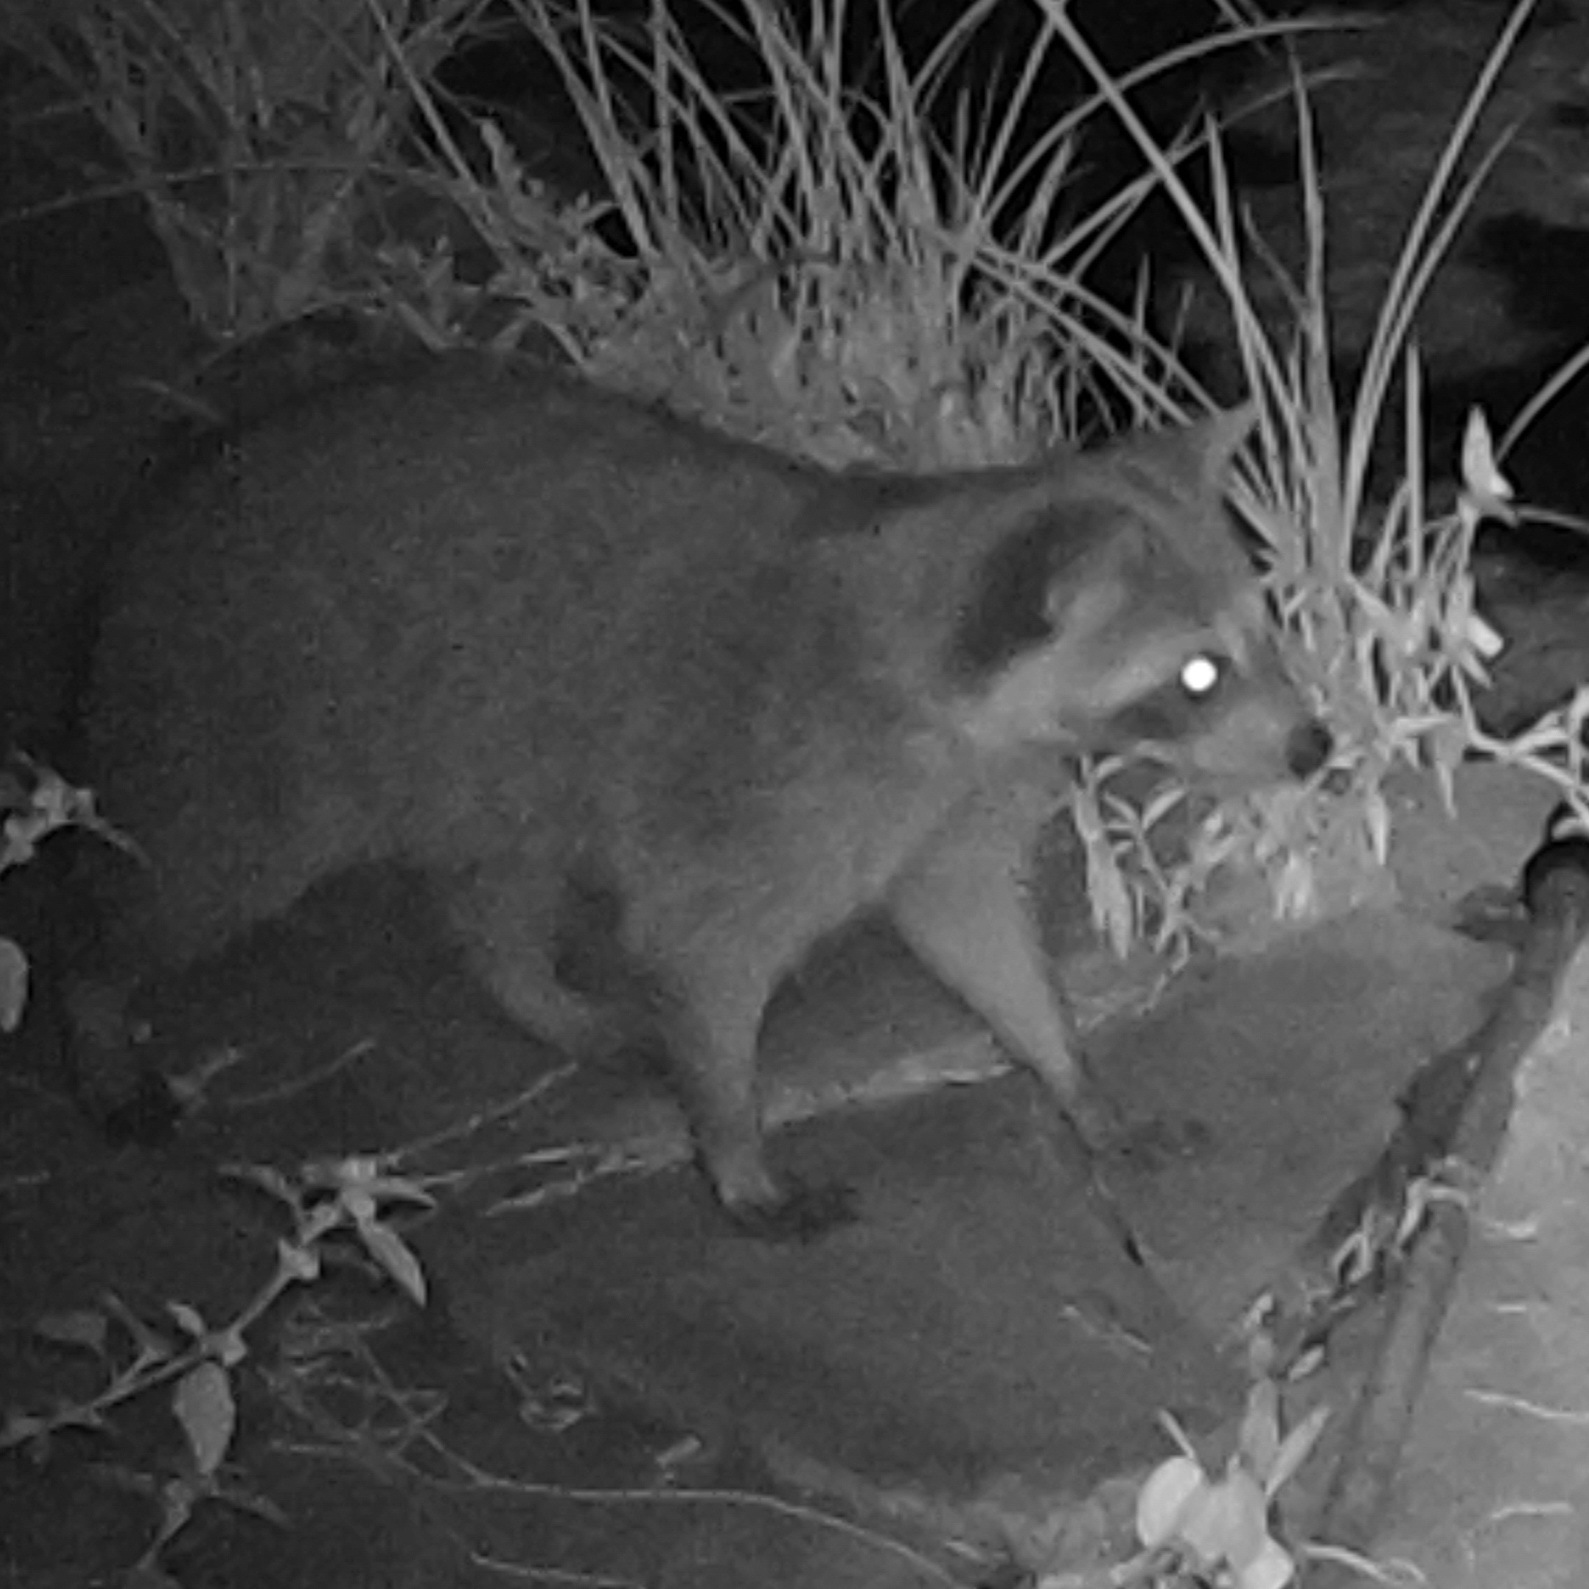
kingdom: Animalia
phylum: Chordata
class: Mammalia
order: Carnivora
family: Procyonidae
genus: Procyon
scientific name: Procyon lotor
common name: Raccoon
